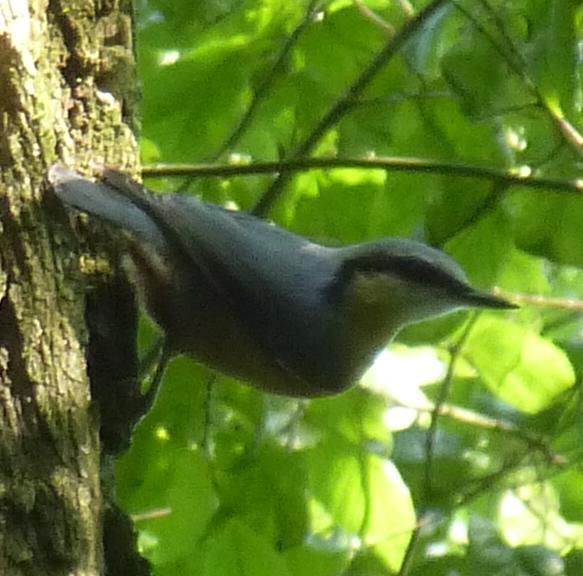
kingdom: Animalia
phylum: Chordata
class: Aves
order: Passeriformes
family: Sittidae
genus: Sitta
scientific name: Sitta europaea
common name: Eurasian nuthatch
